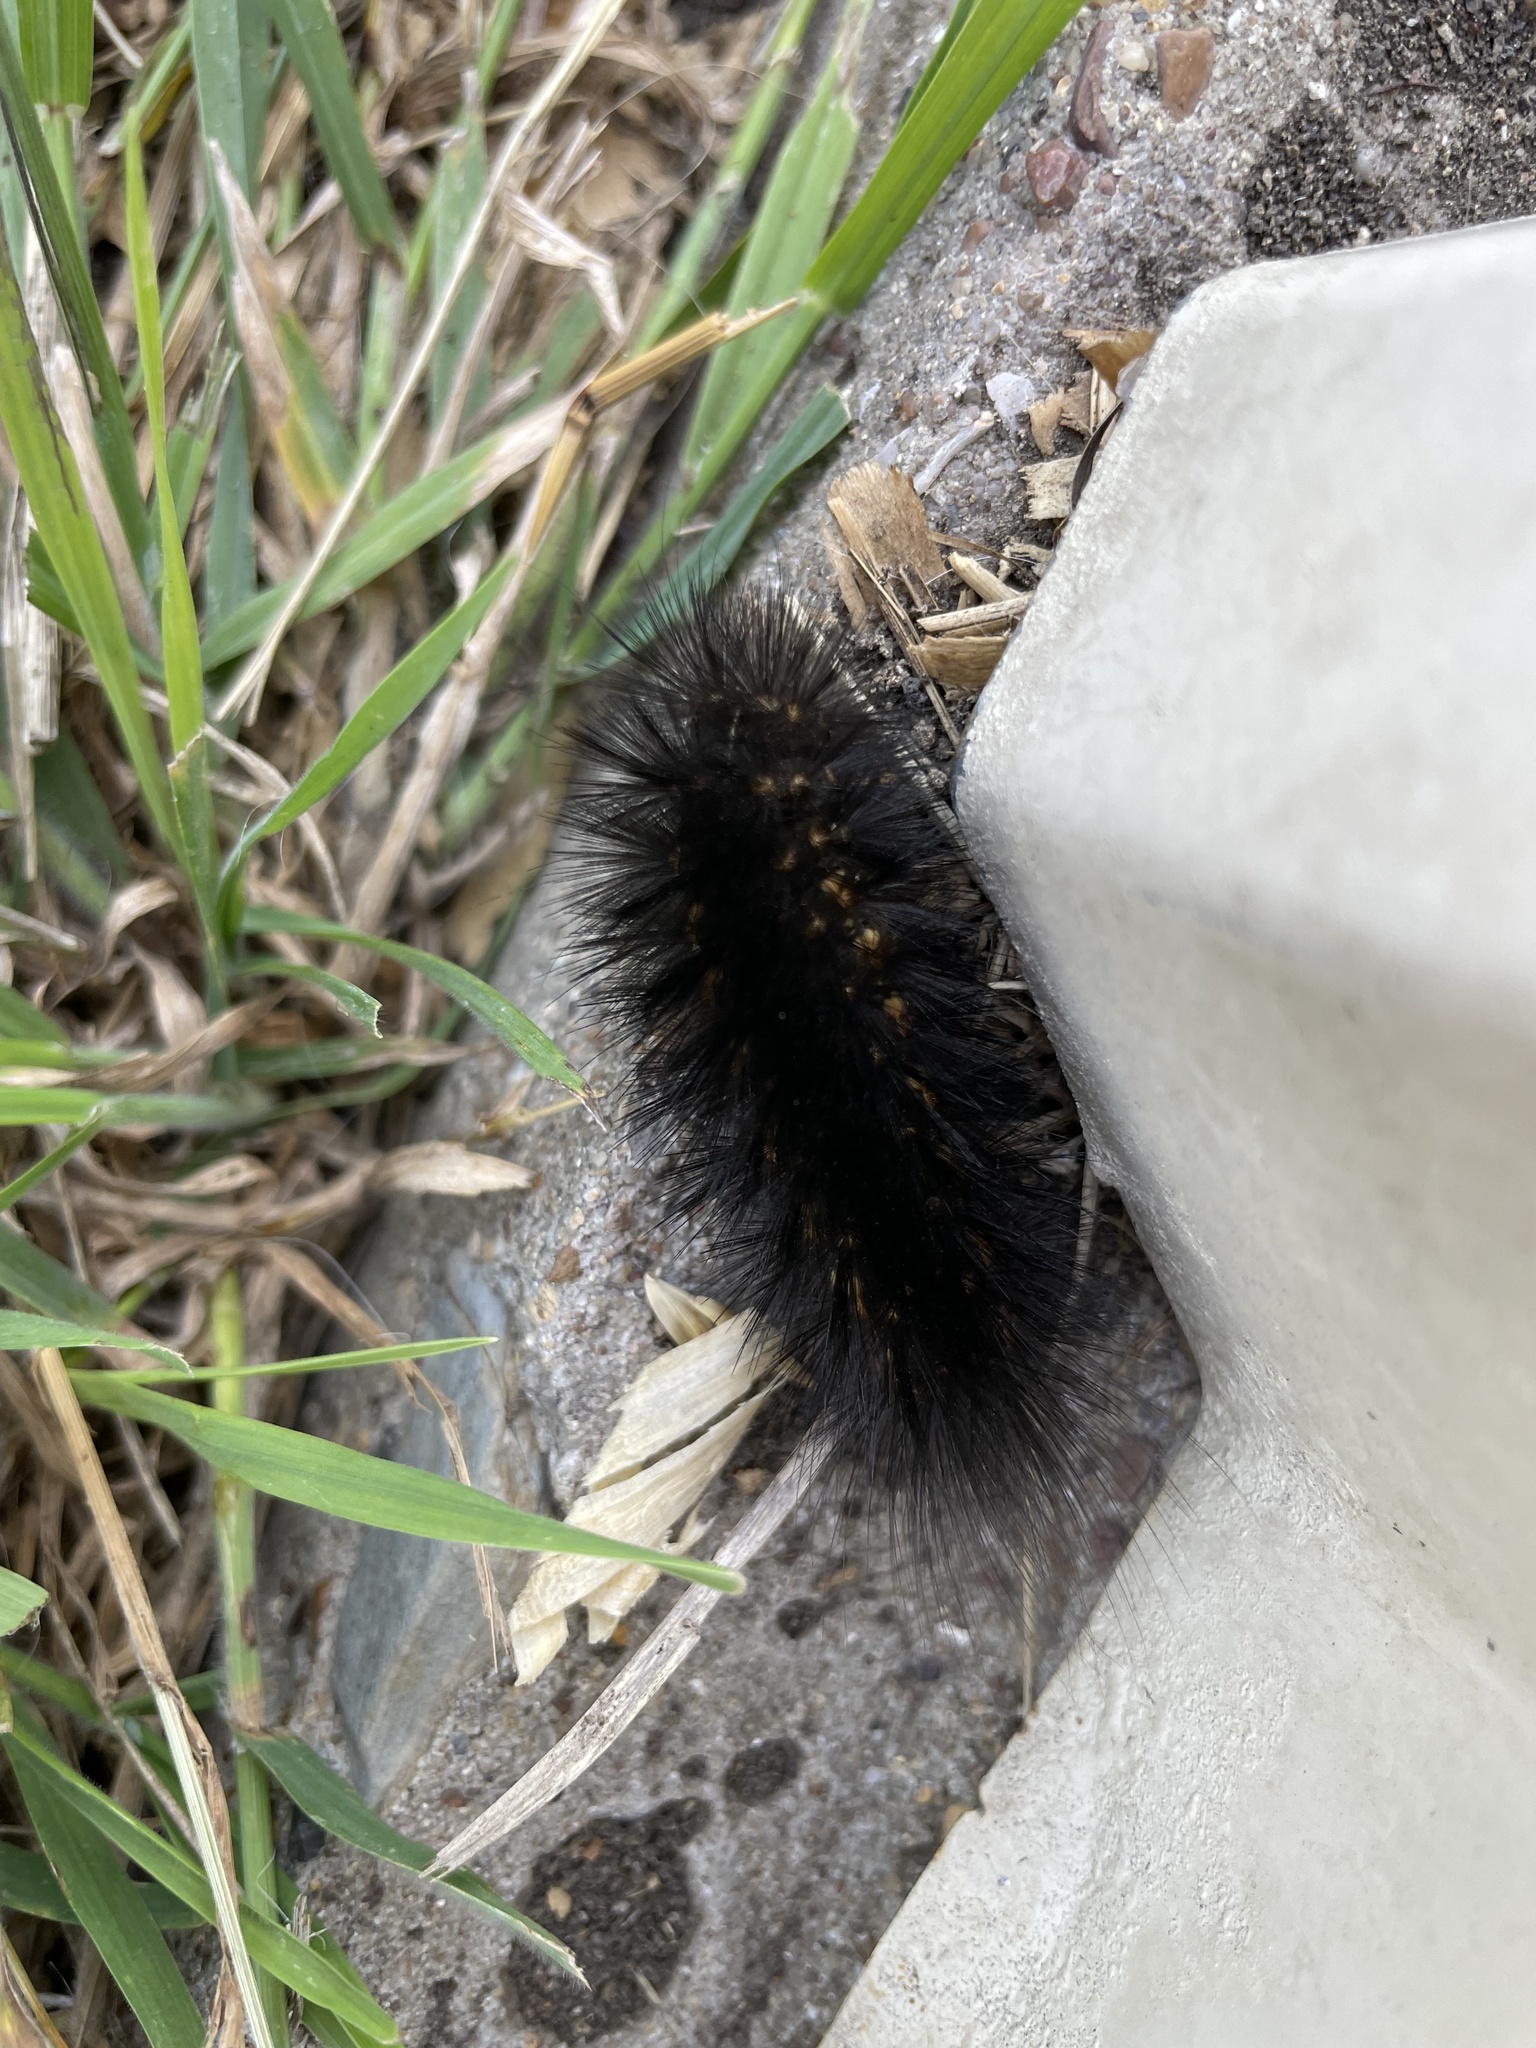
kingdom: Animalia
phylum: Arthropoda
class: Insecta
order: Lepidoptera
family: Erebidae
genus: Hypercompe
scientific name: Hypercompe scribonia
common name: Giant leopard moth
